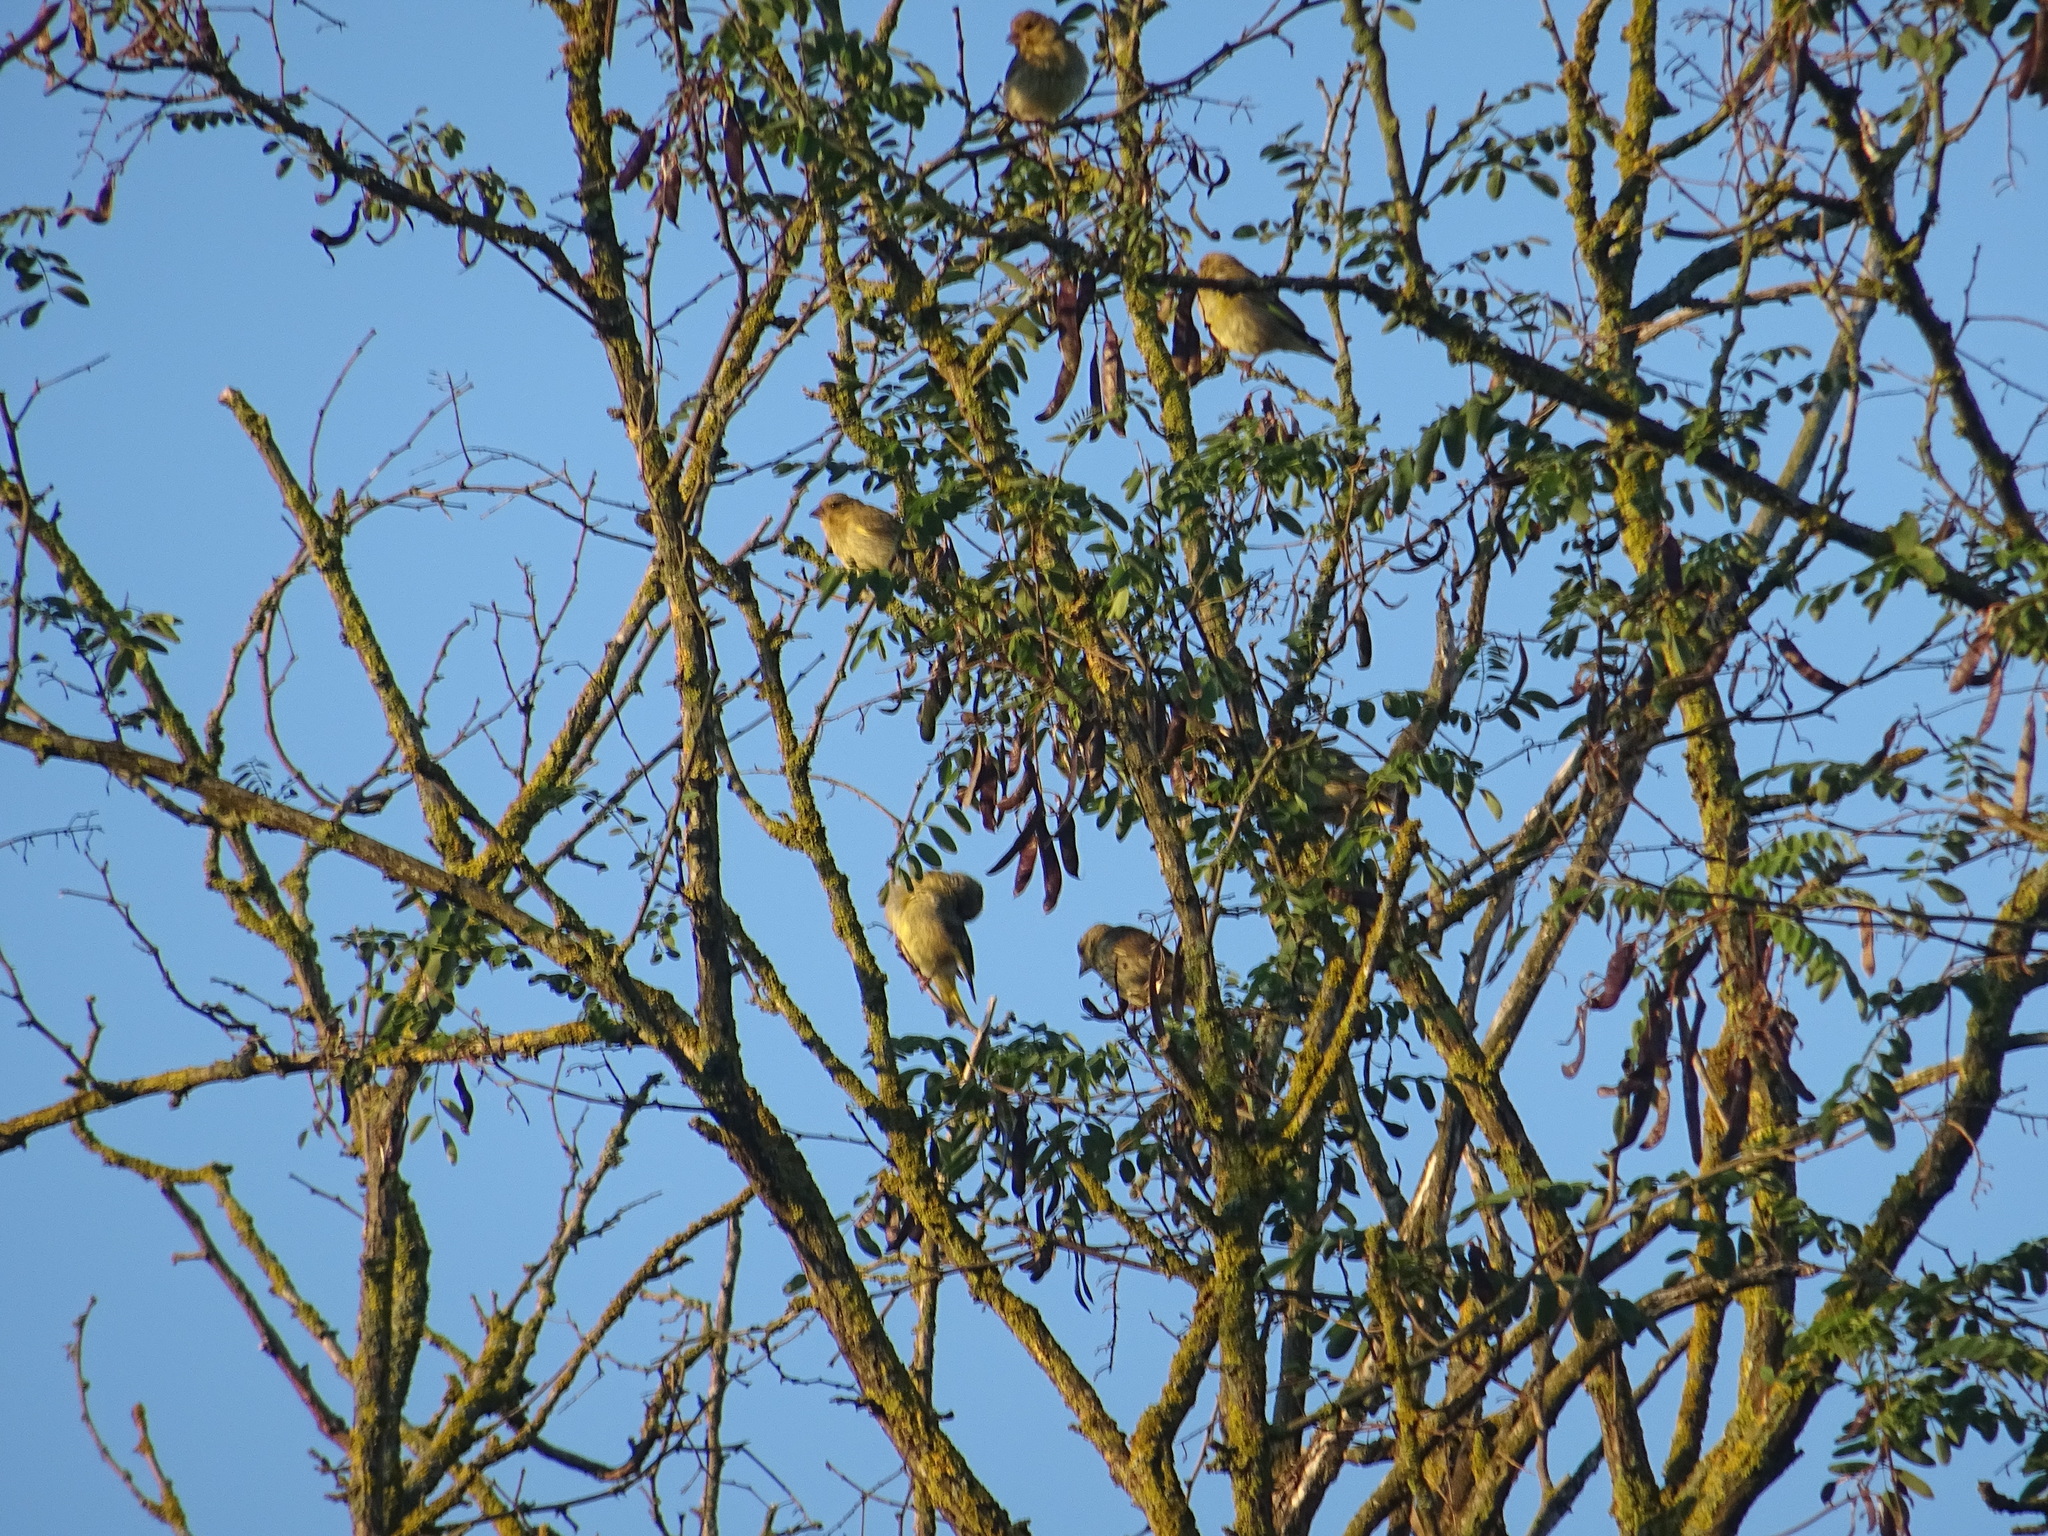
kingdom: Plantae
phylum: Tracheophyta
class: Liliopsida
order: Poales
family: Poaceae
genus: Chloris
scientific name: Chloris chloris
